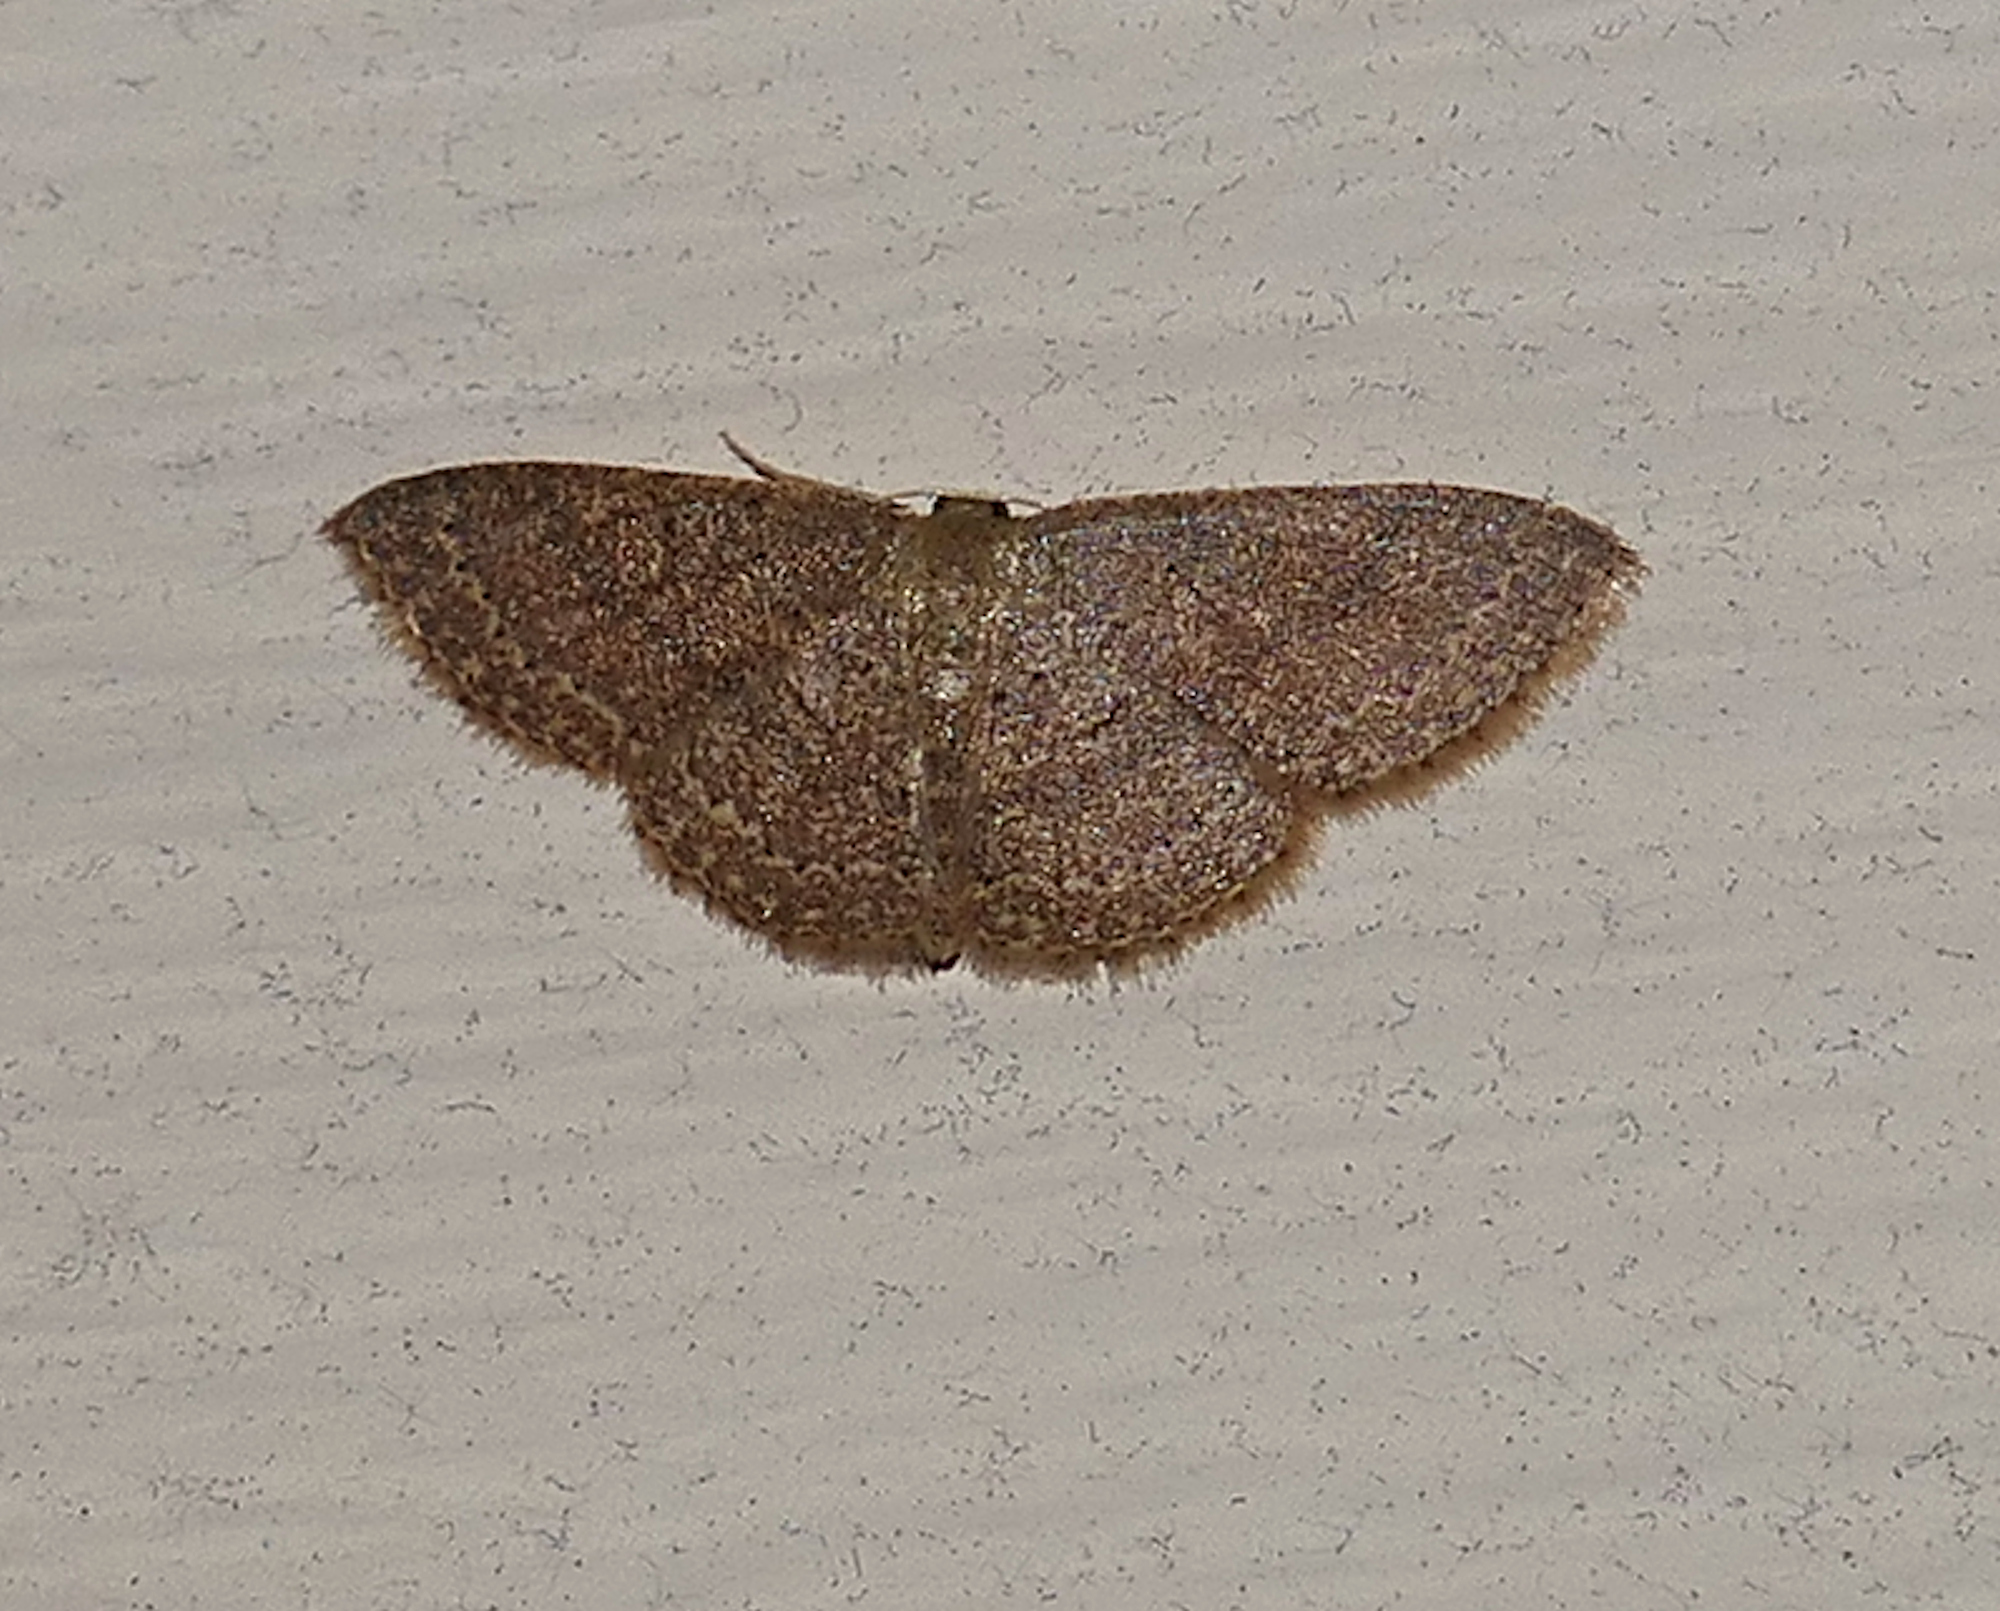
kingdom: Animalia
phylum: Arthropoda
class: Insecta
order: Lepidoptera
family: Geometridae
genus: Pleuroprucha
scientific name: Pleuroprucha insulsaria
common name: Common tan wave
